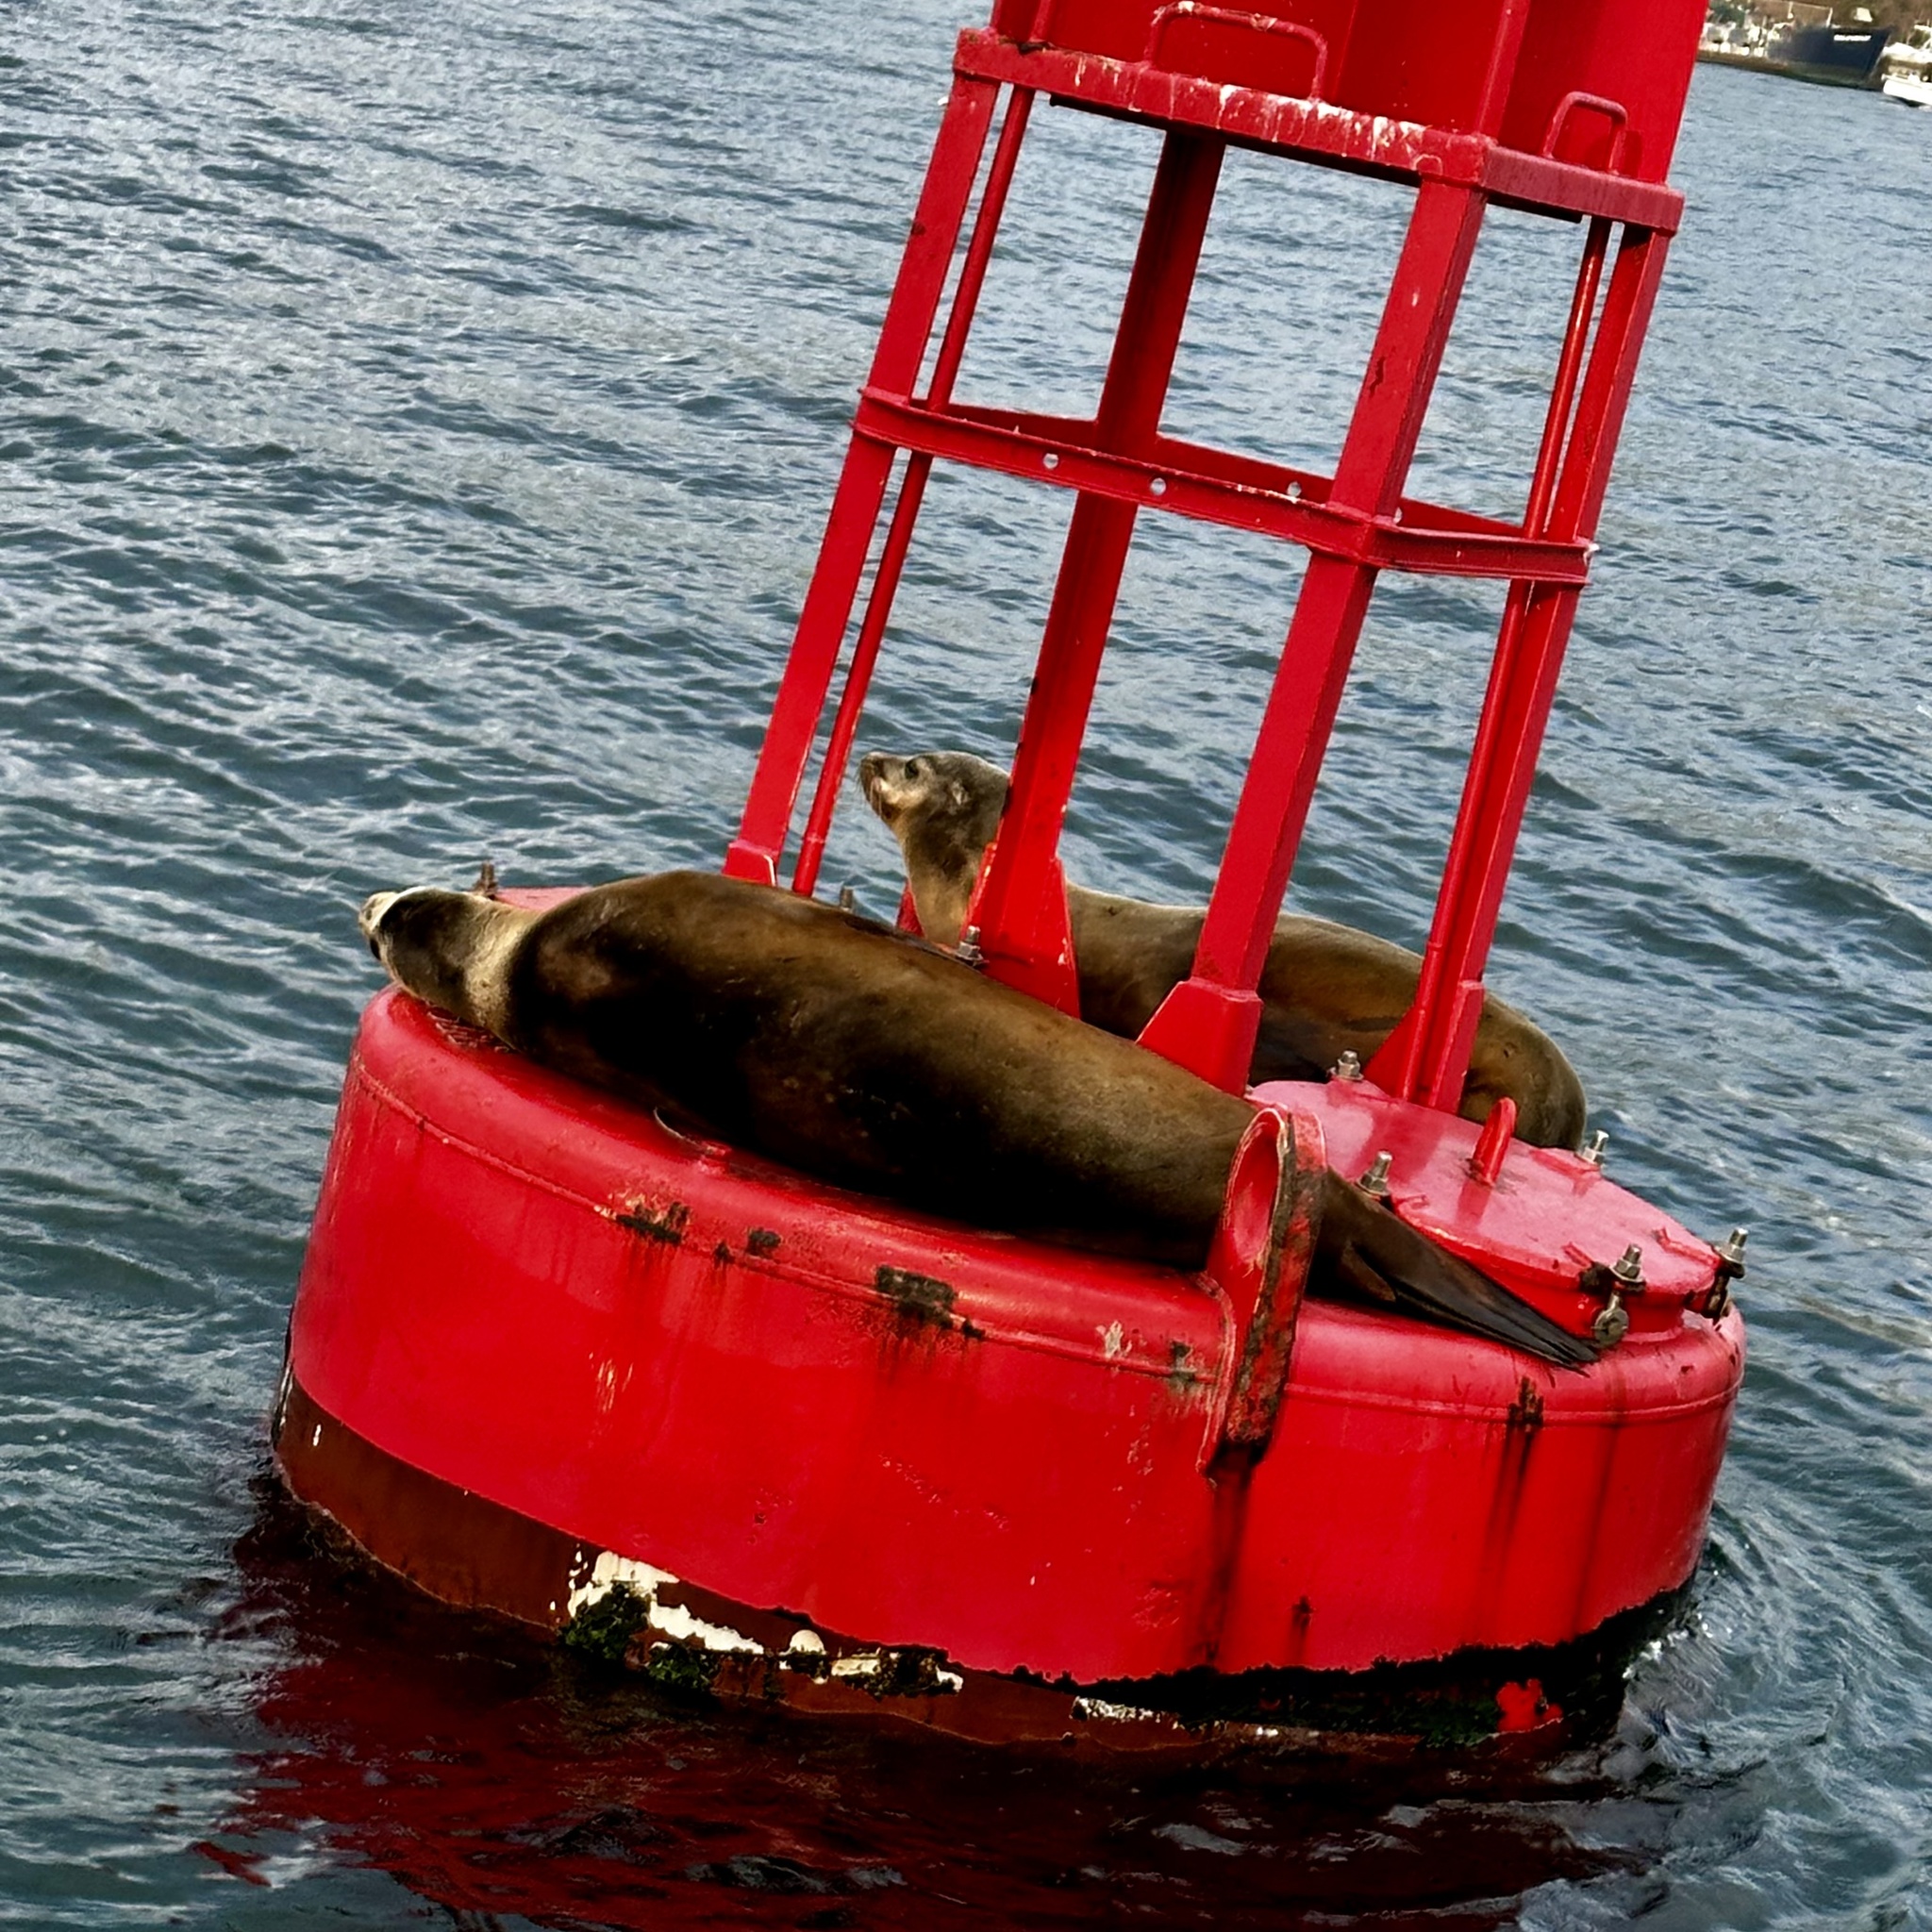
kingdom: Animalia
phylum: Chordata
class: Mammalia
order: Carnivora
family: Otariidae
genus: Zalophus
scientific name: Zalophus californianus
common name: California sea lion
